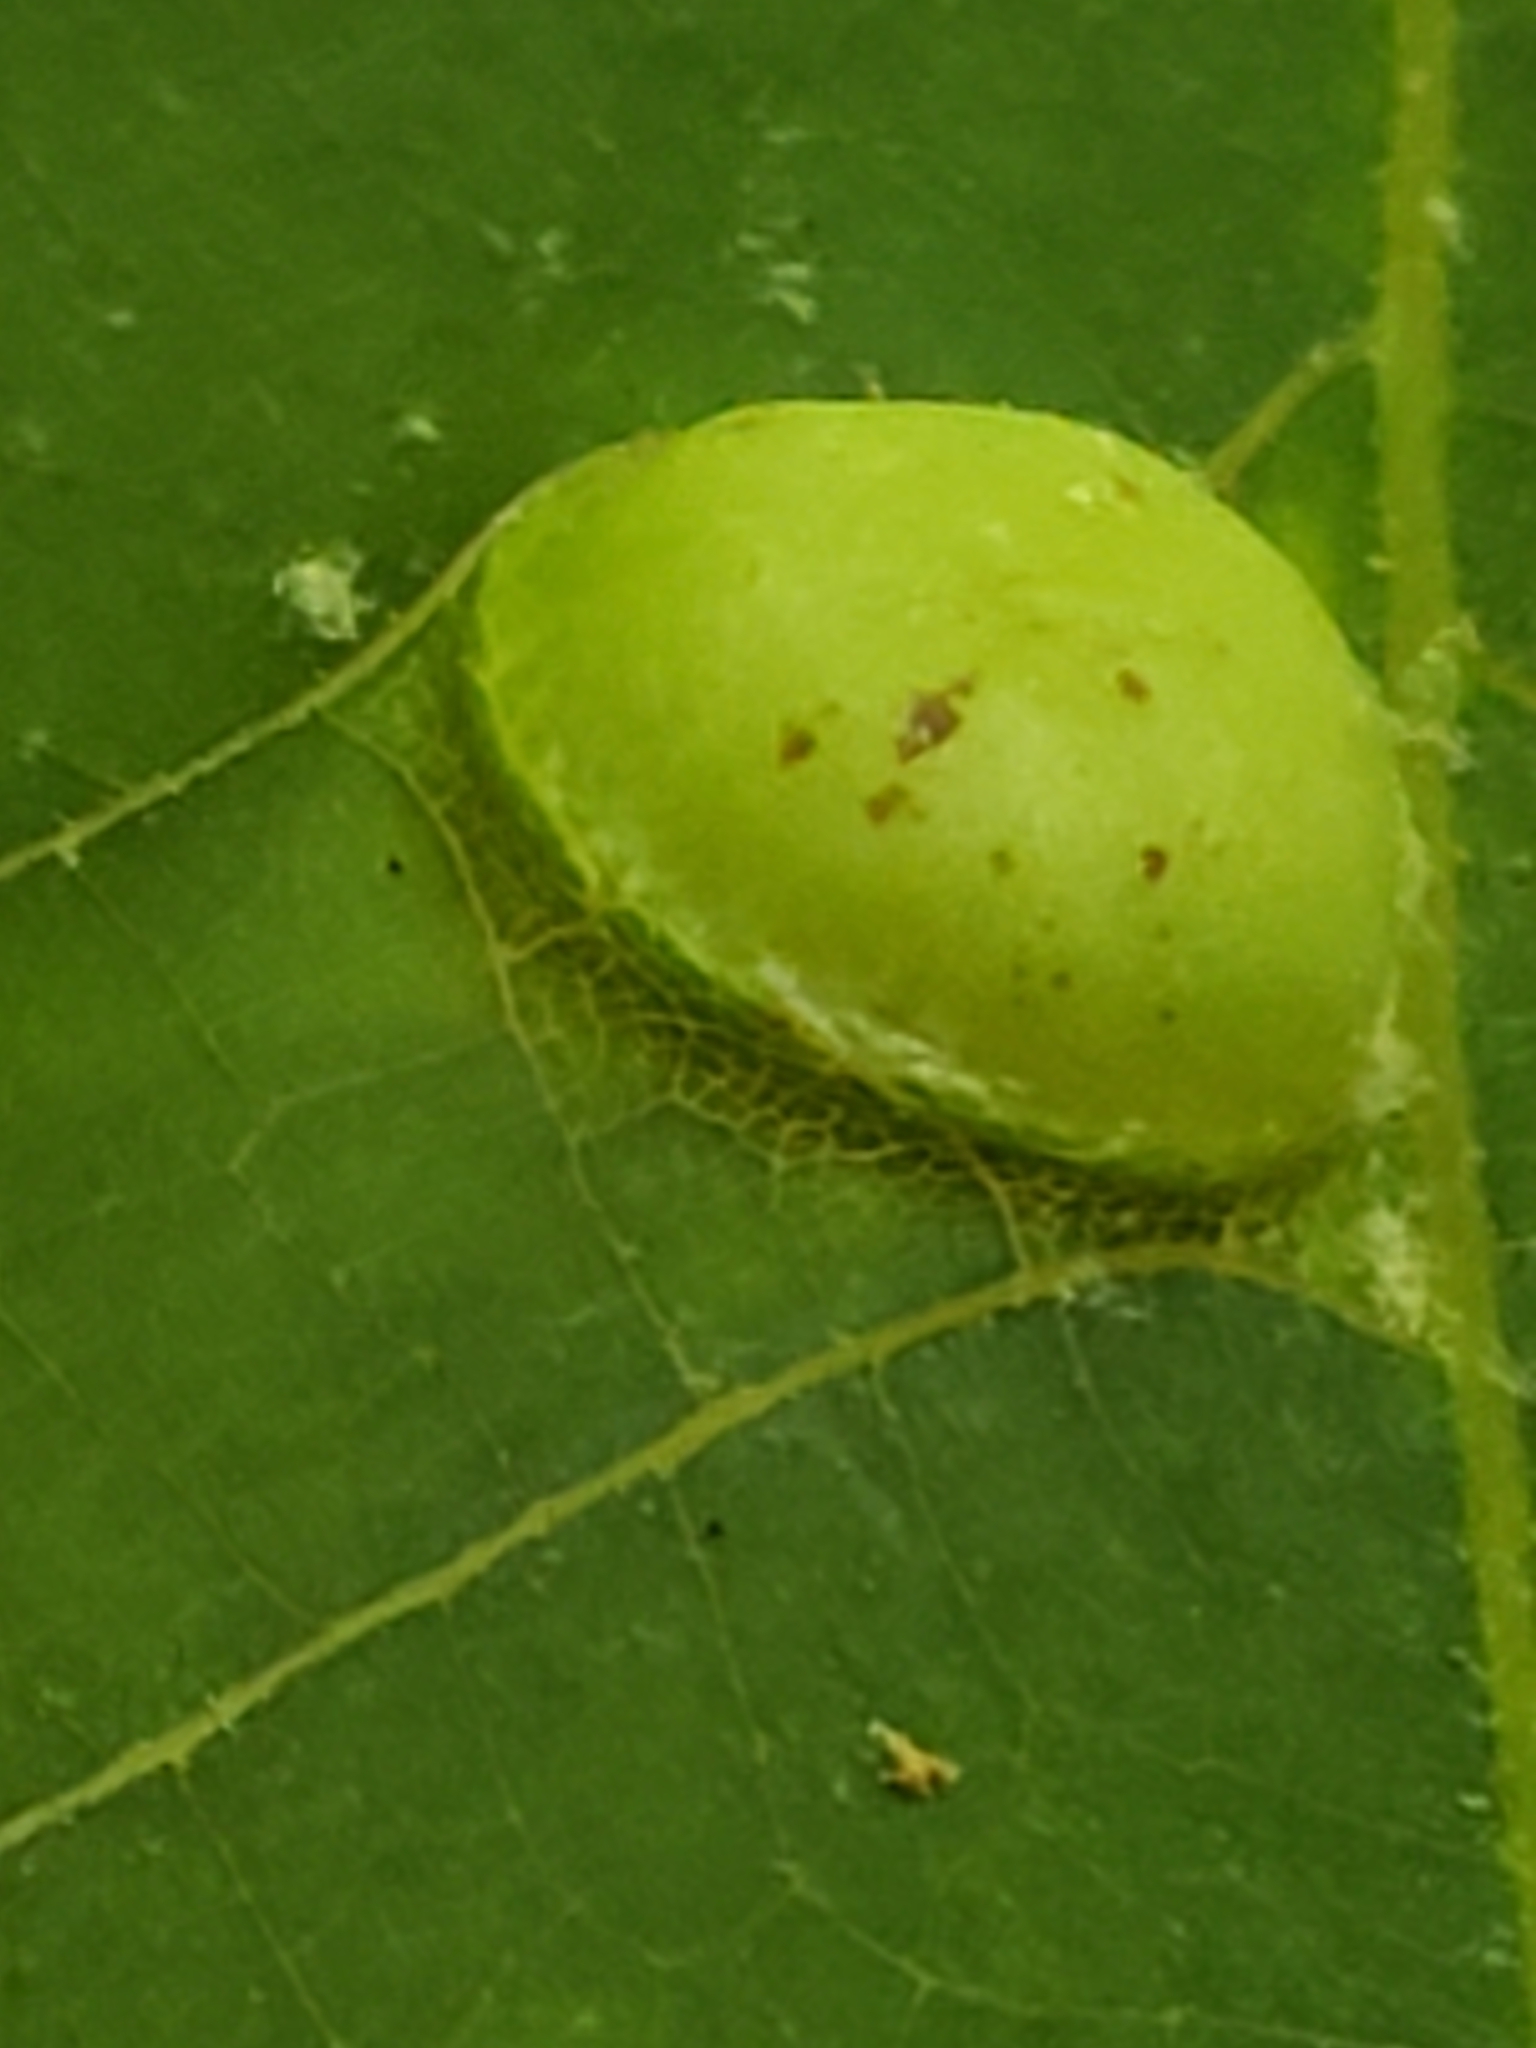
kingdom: Animalia
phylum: Arthropoda
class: Insecta
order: Hemiptera
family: Phylloxeridae
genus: Phylloxera
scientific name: Phylloxera depressa
